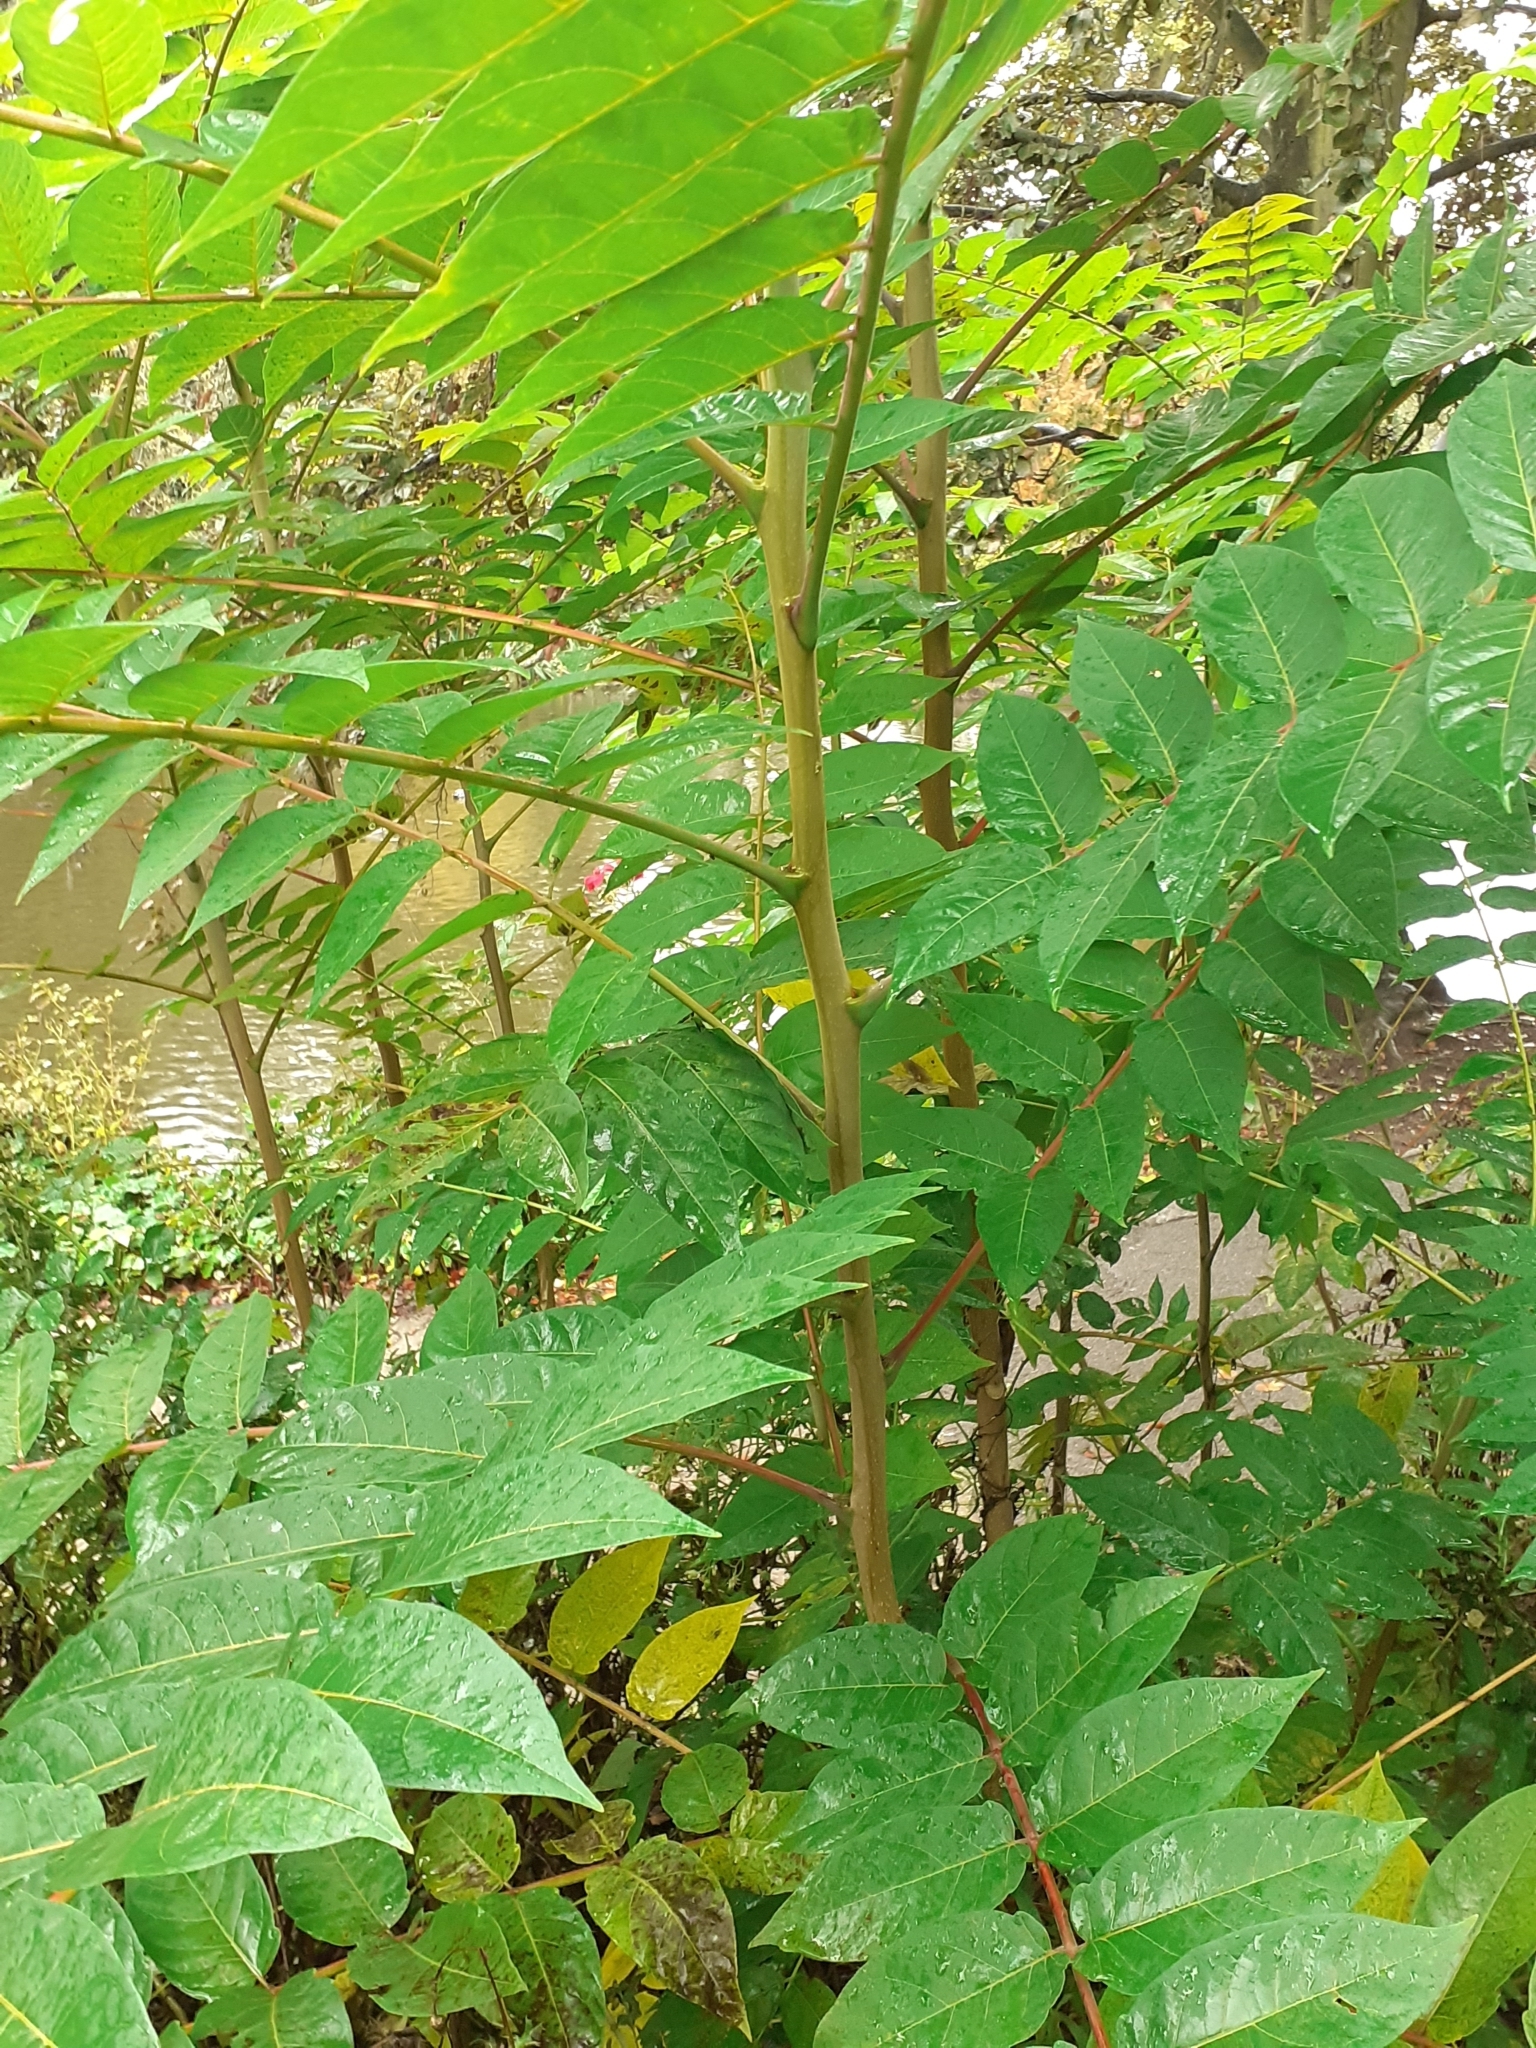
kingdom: Plantae
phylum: Tracheophyta
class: Magnoliopsida
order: Sapindales
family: Simaroubaceae
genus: Ailanthus
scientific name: Ailanthus altissima
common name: Tree-of-heaven
